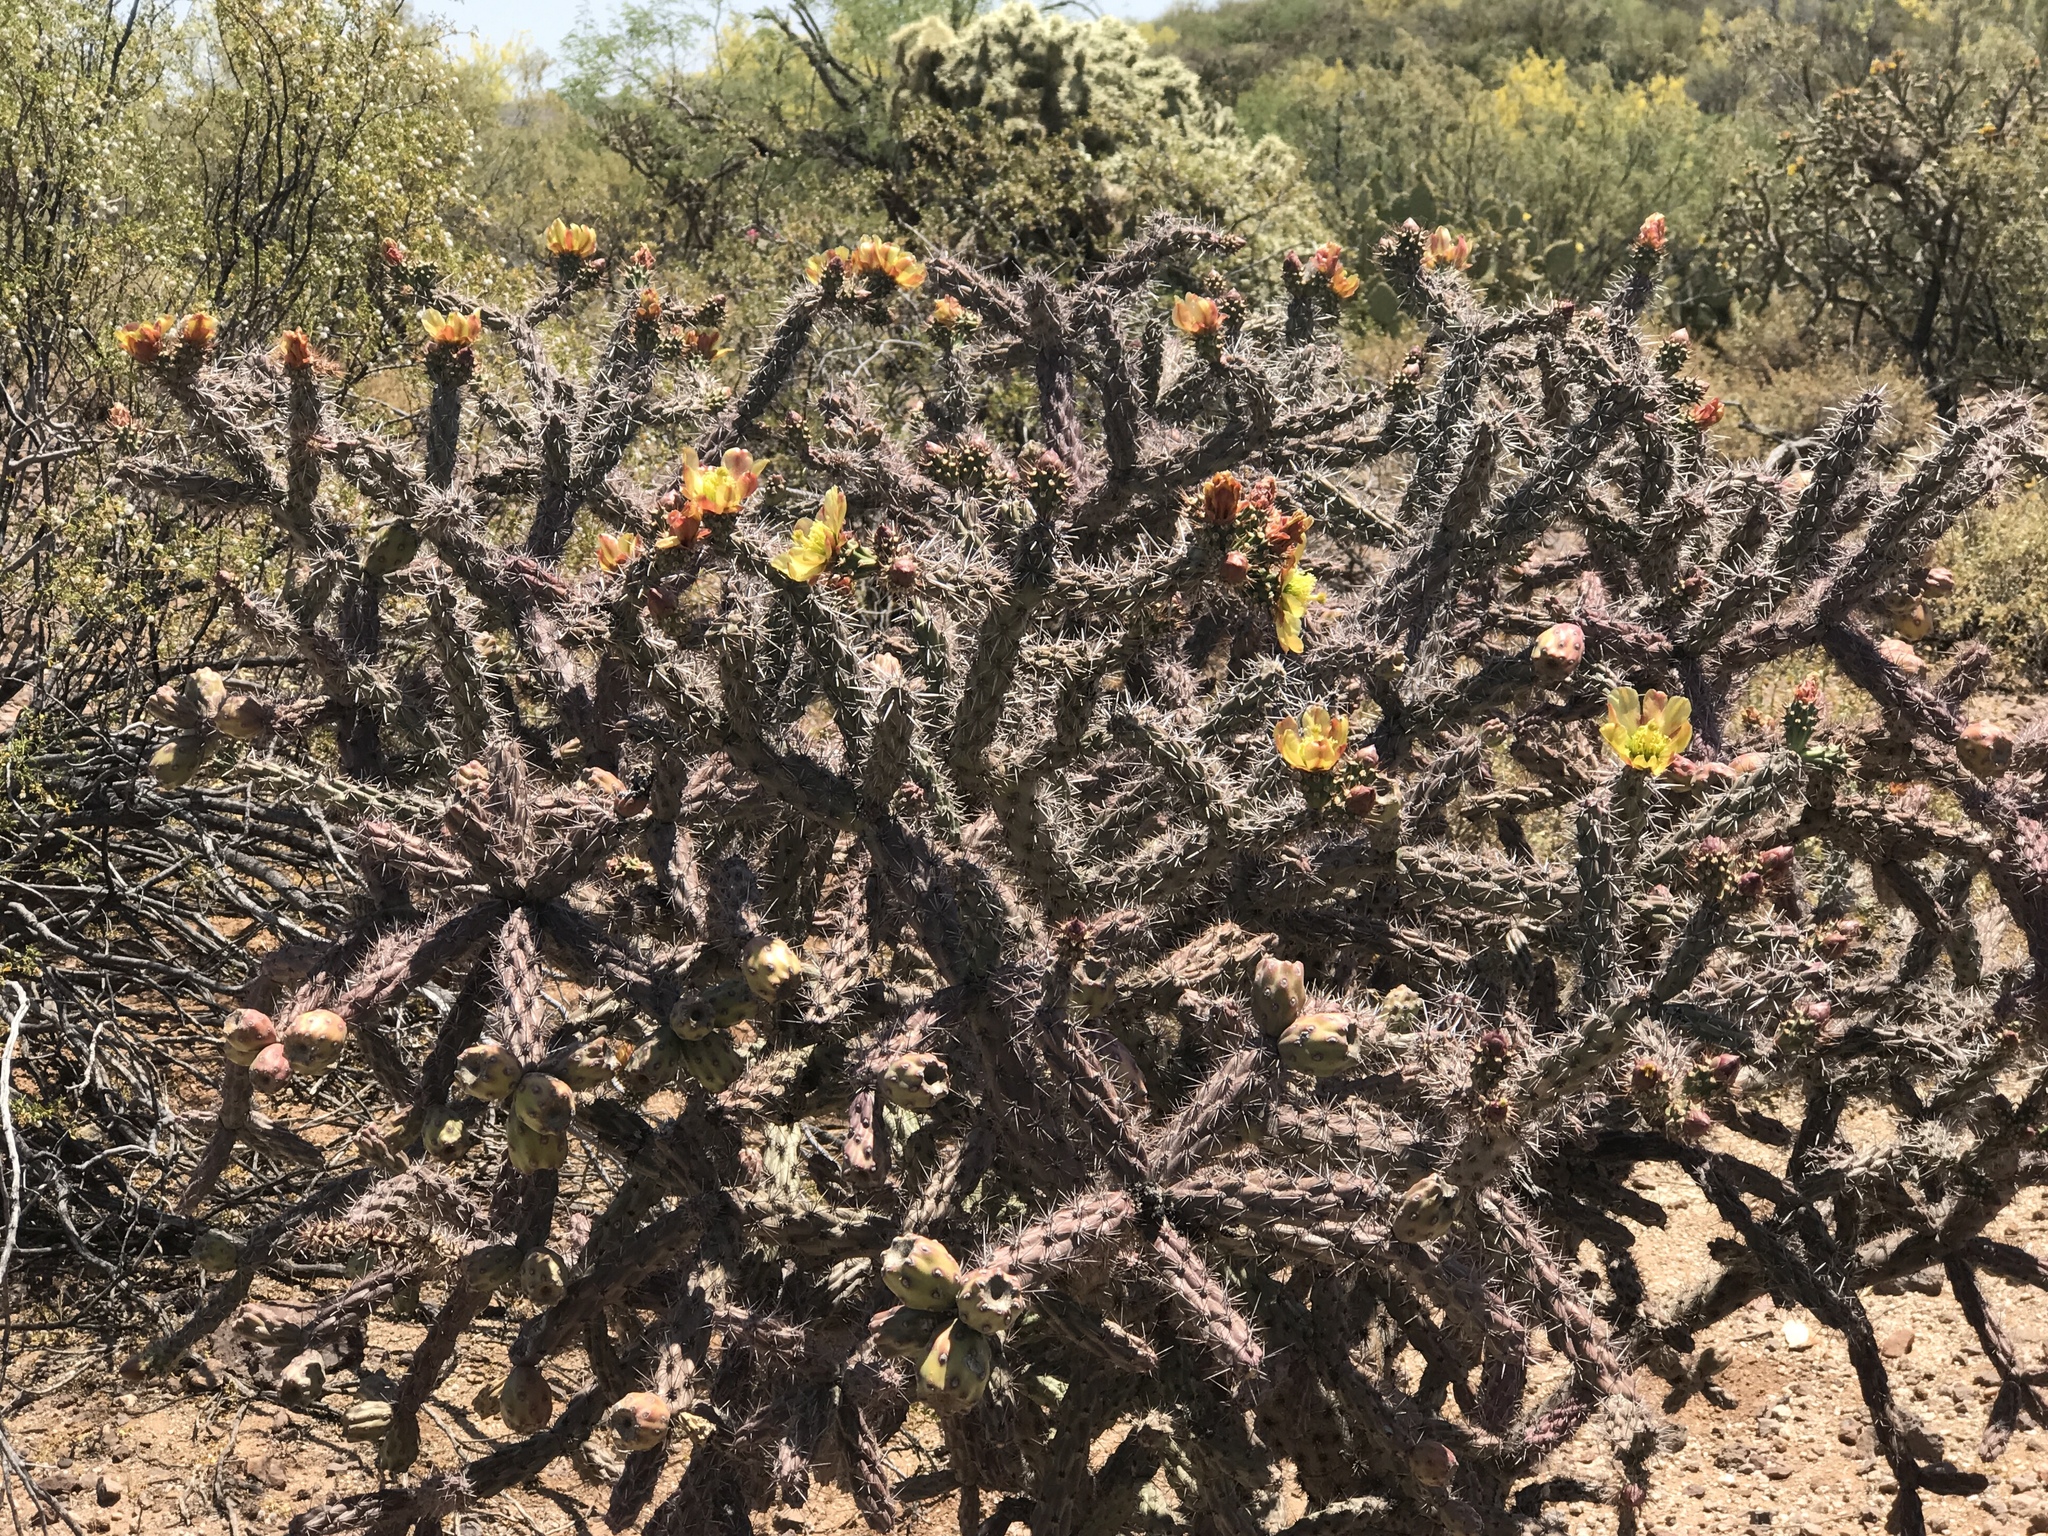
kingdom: Plantae
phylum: Tracheophyta
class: Magnoliopsida
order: Caryophyllales
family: Cactaceae
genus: Cylindropuntia
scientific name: Cylindropuntia thurberi
